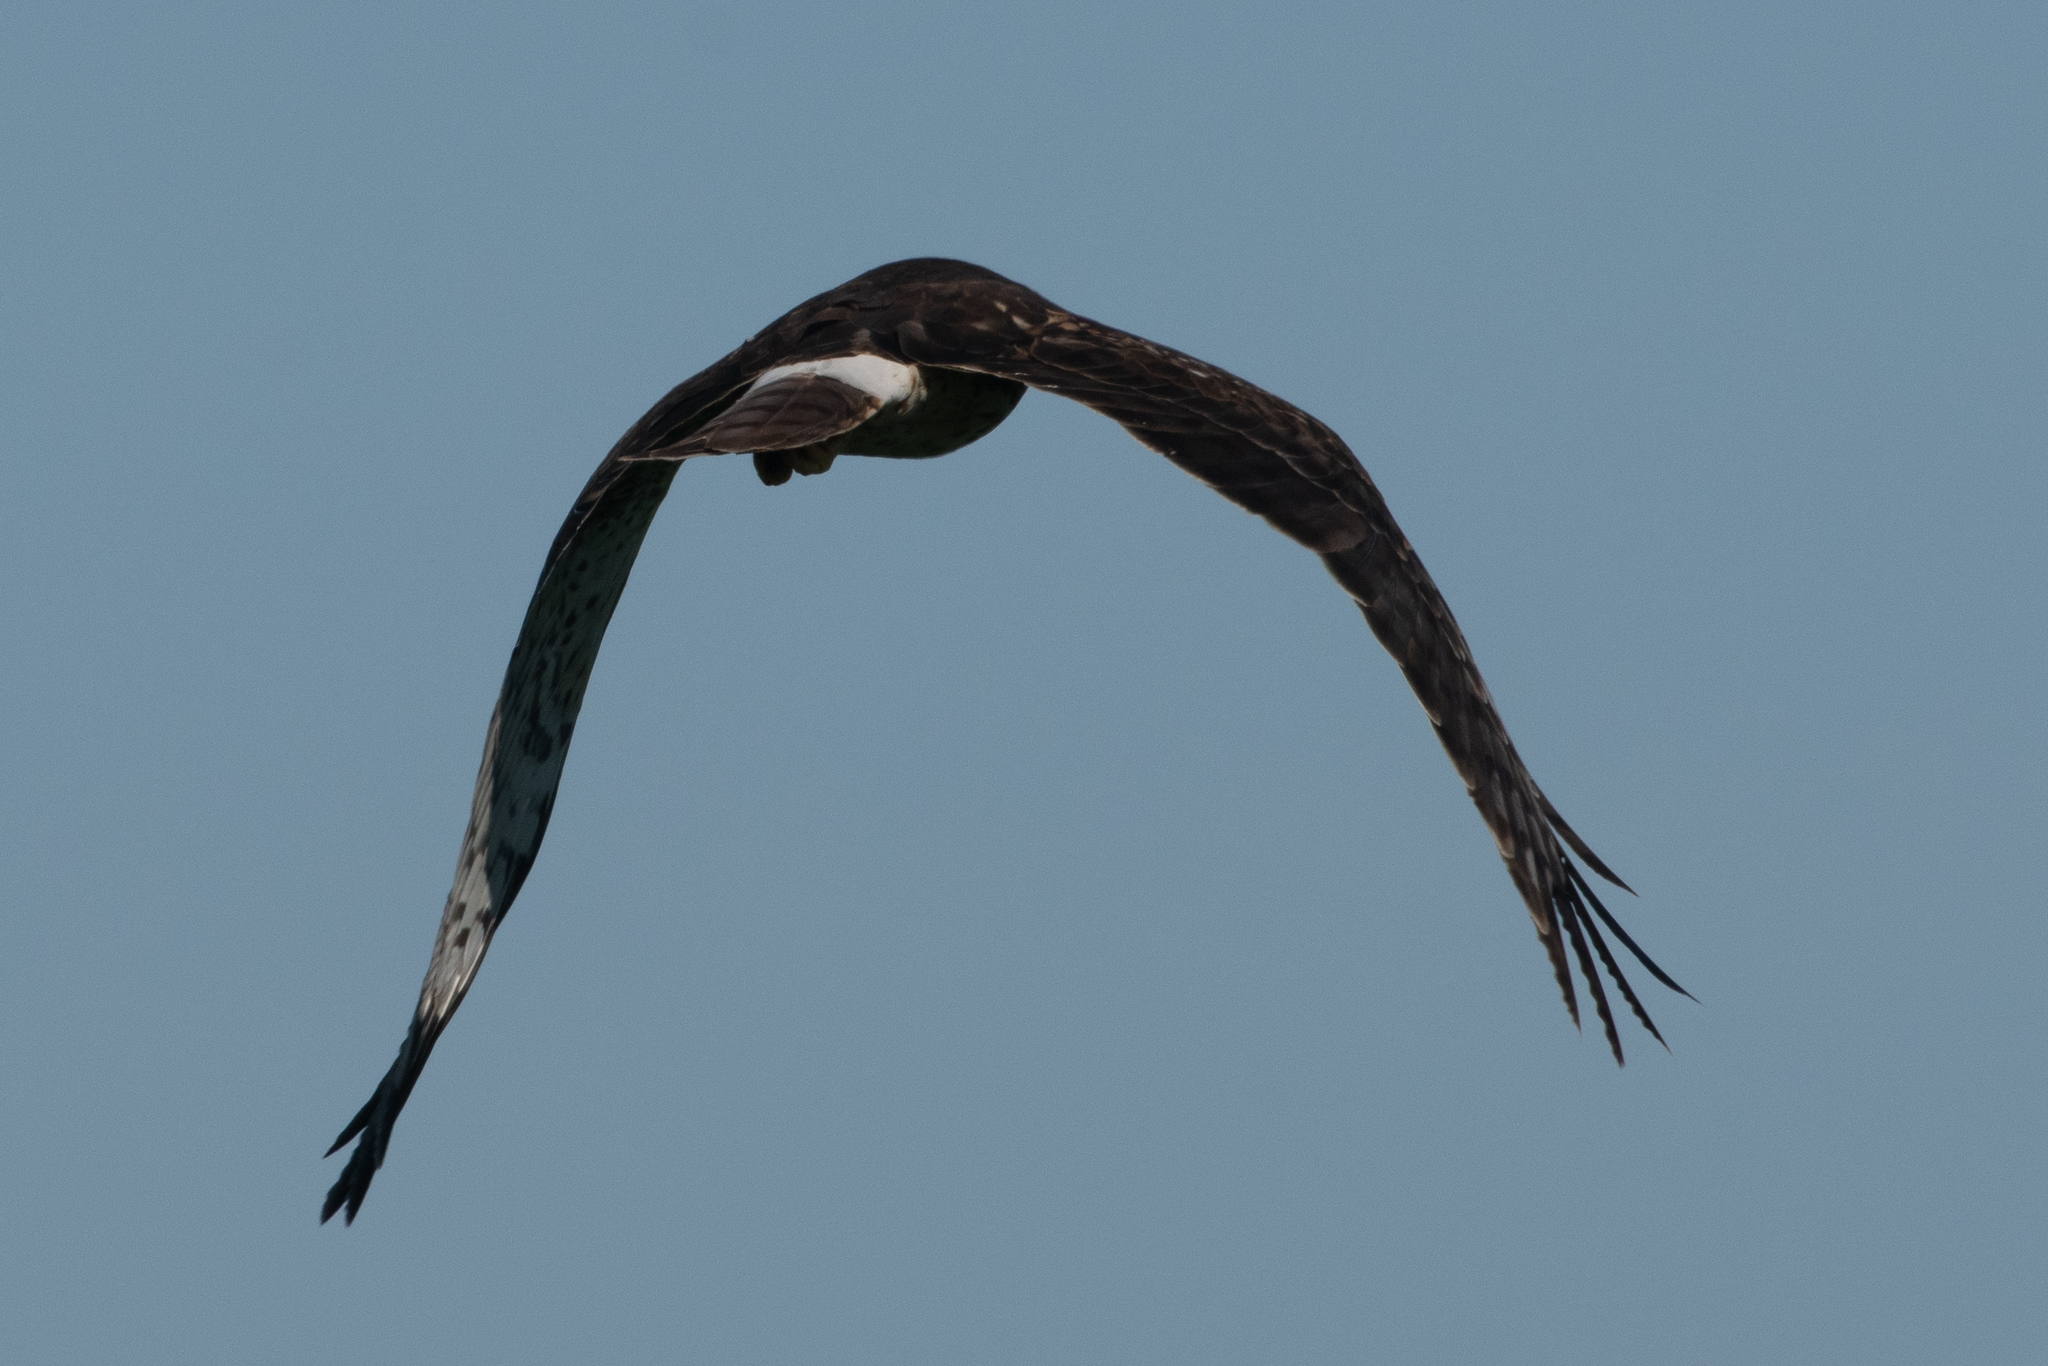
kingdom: Animalia
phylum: Chordata
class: Aves
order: Accipitriformes
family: Accipitridae
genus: Circus
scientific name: Circus cyaneus
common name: Hen harrier
